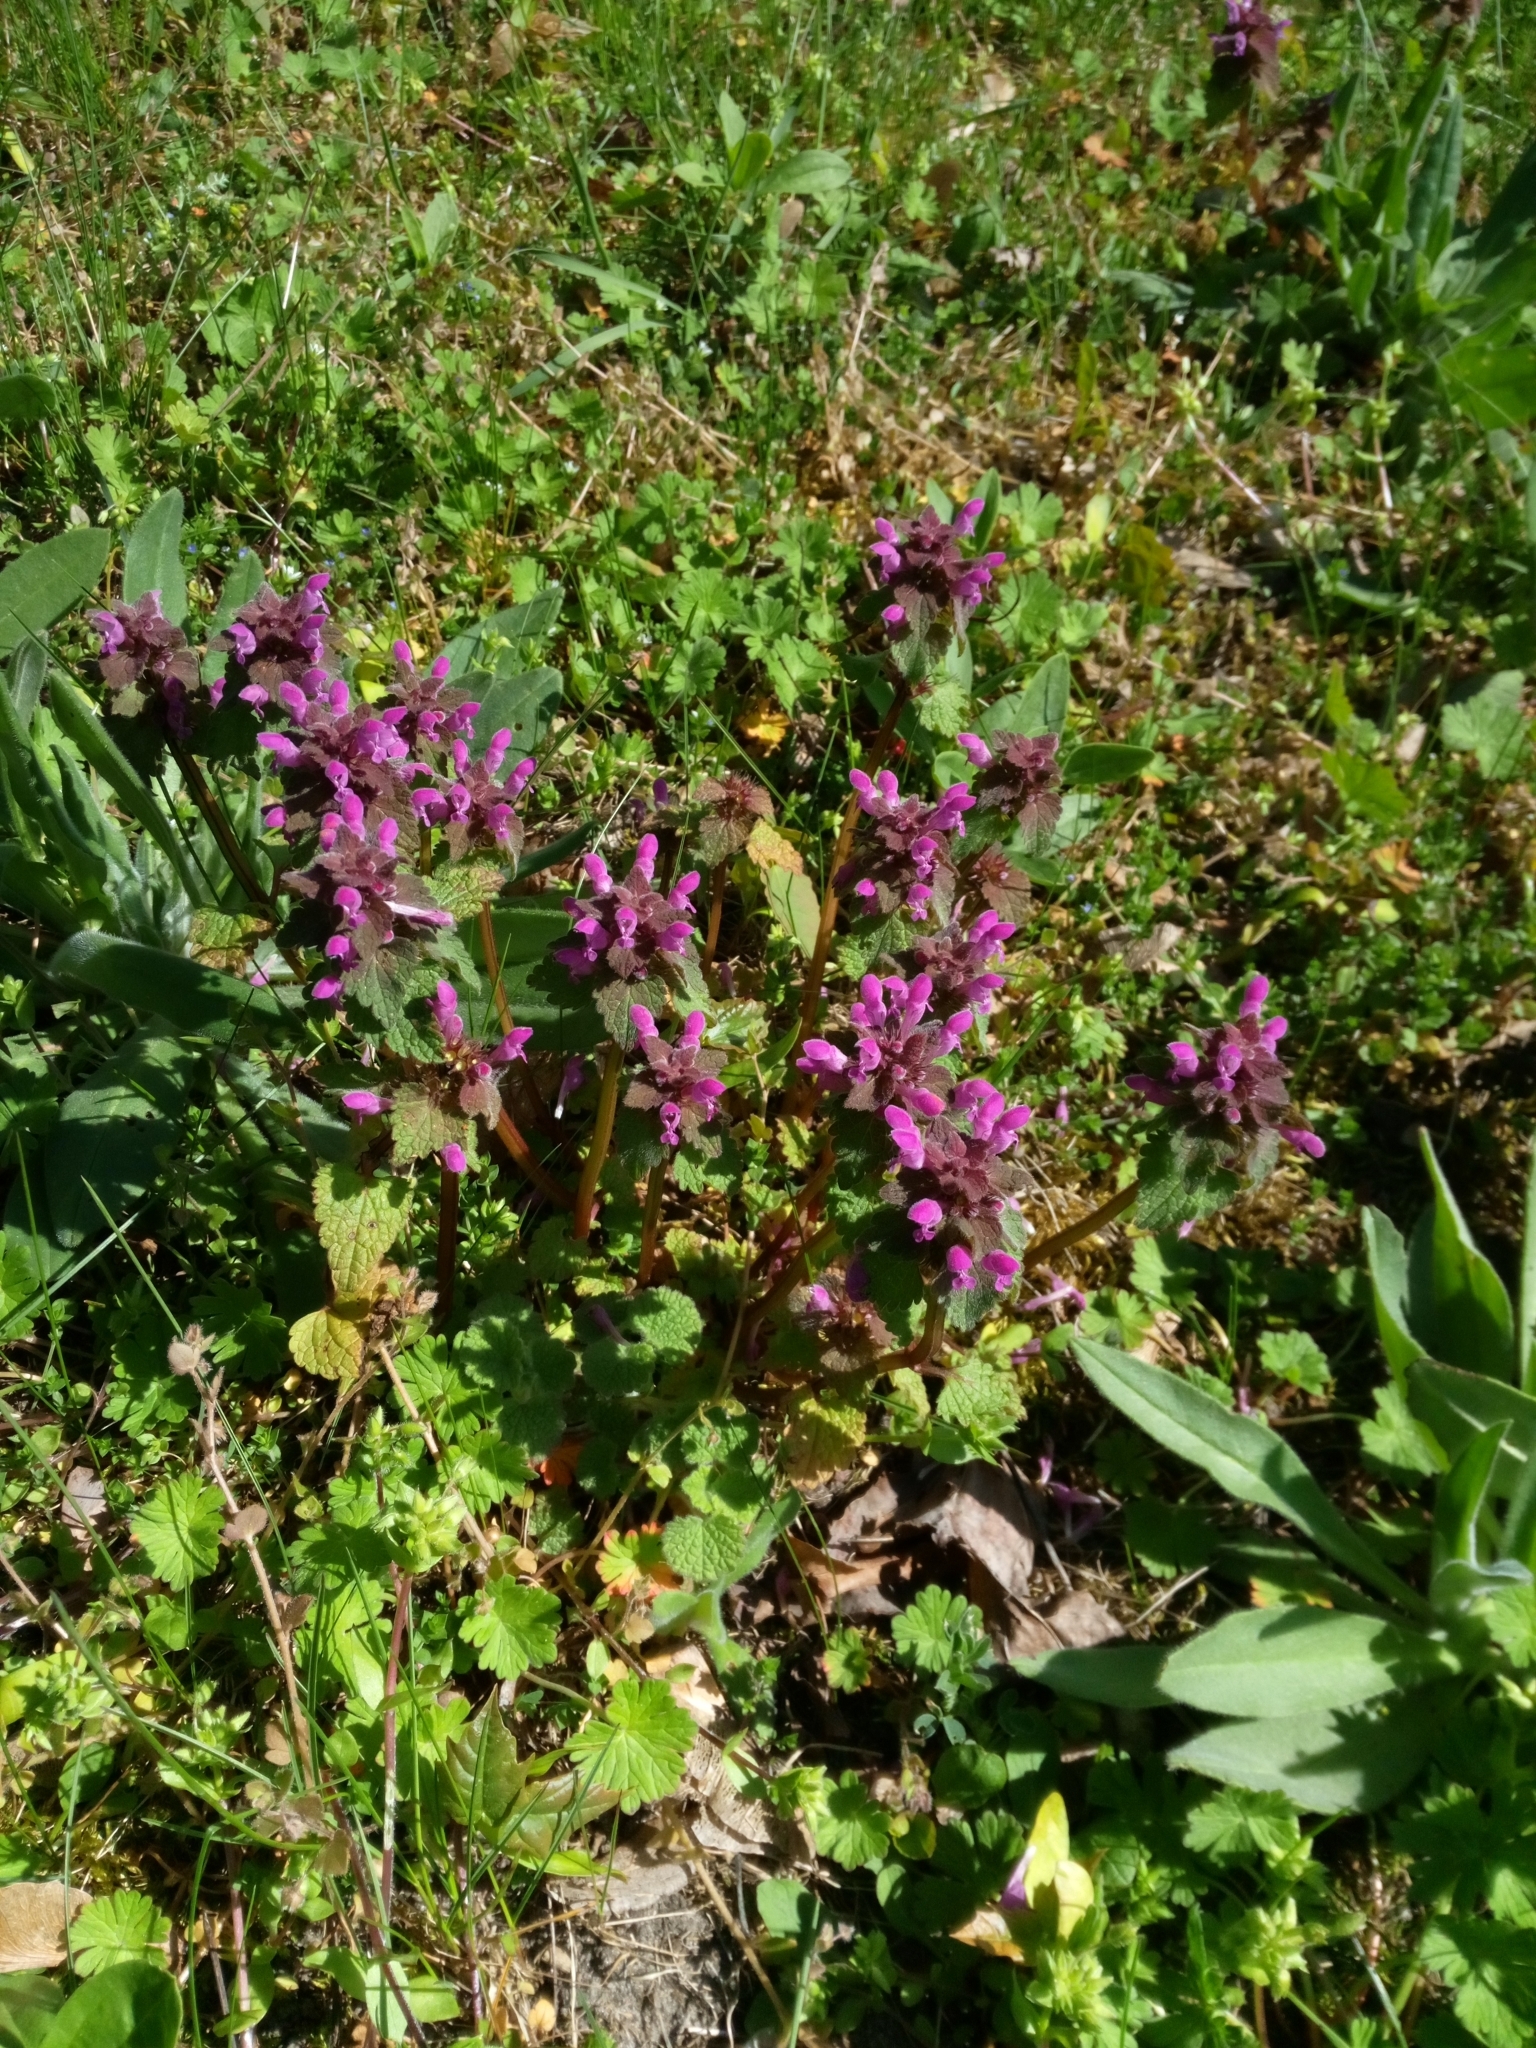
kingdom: Plantae
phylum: Tracheophyta
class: Magnoliopsida
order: Lamiales
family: Lamiaceae
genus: Lamium
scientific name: Lamium purpureum
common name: Red dead-nettle
